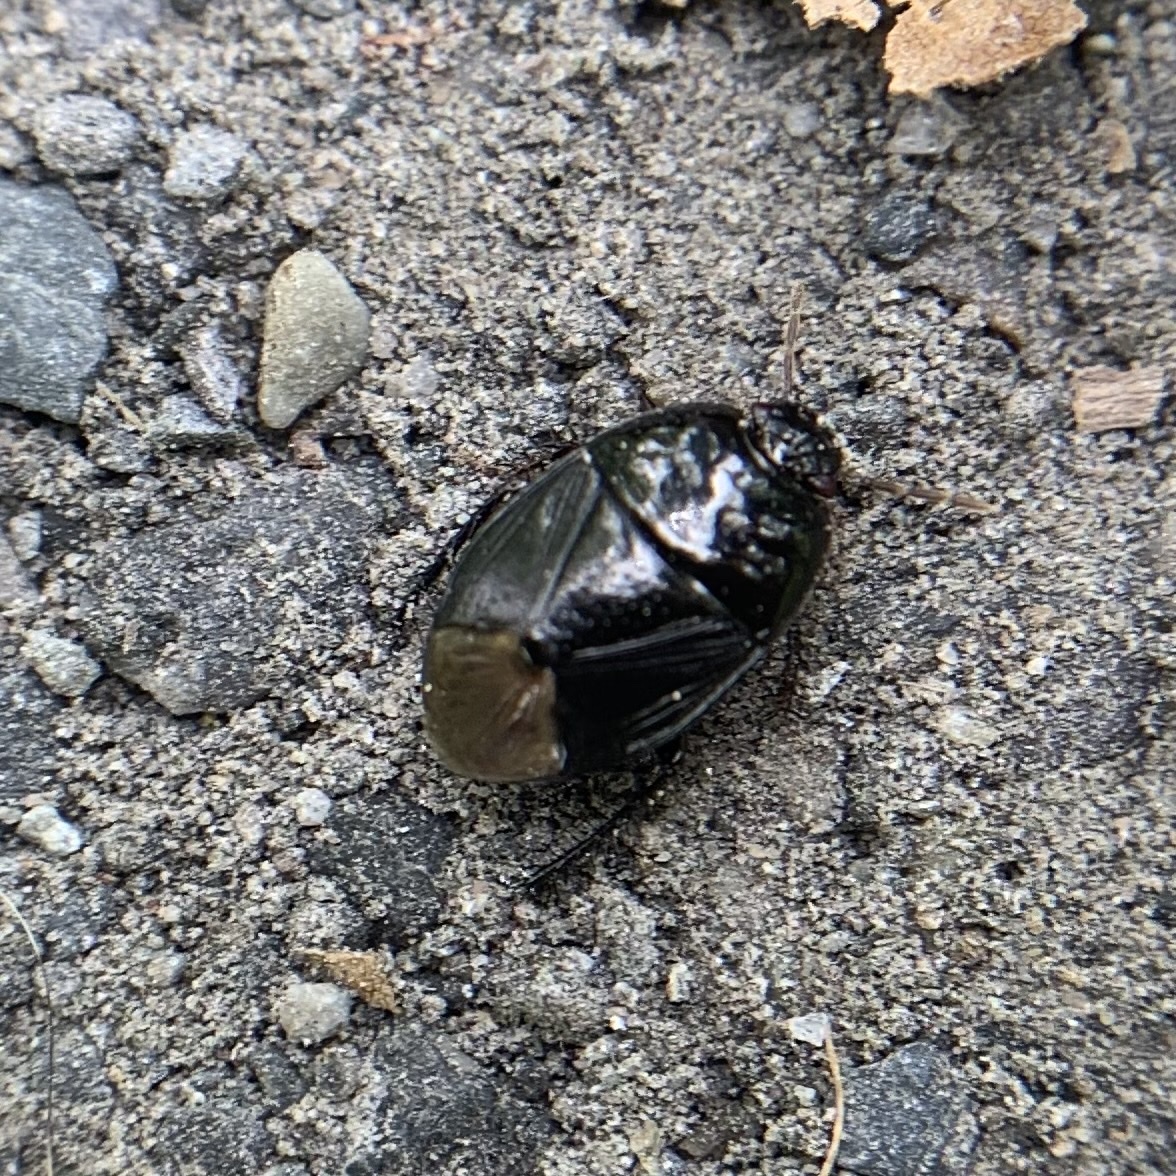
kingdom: Animalia
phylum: Arthropoda
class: Insecta
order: Hemiptera
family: Cydnidae
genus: Pangaeus
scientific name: Pangaeus bilineatus
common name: Burrower bug
